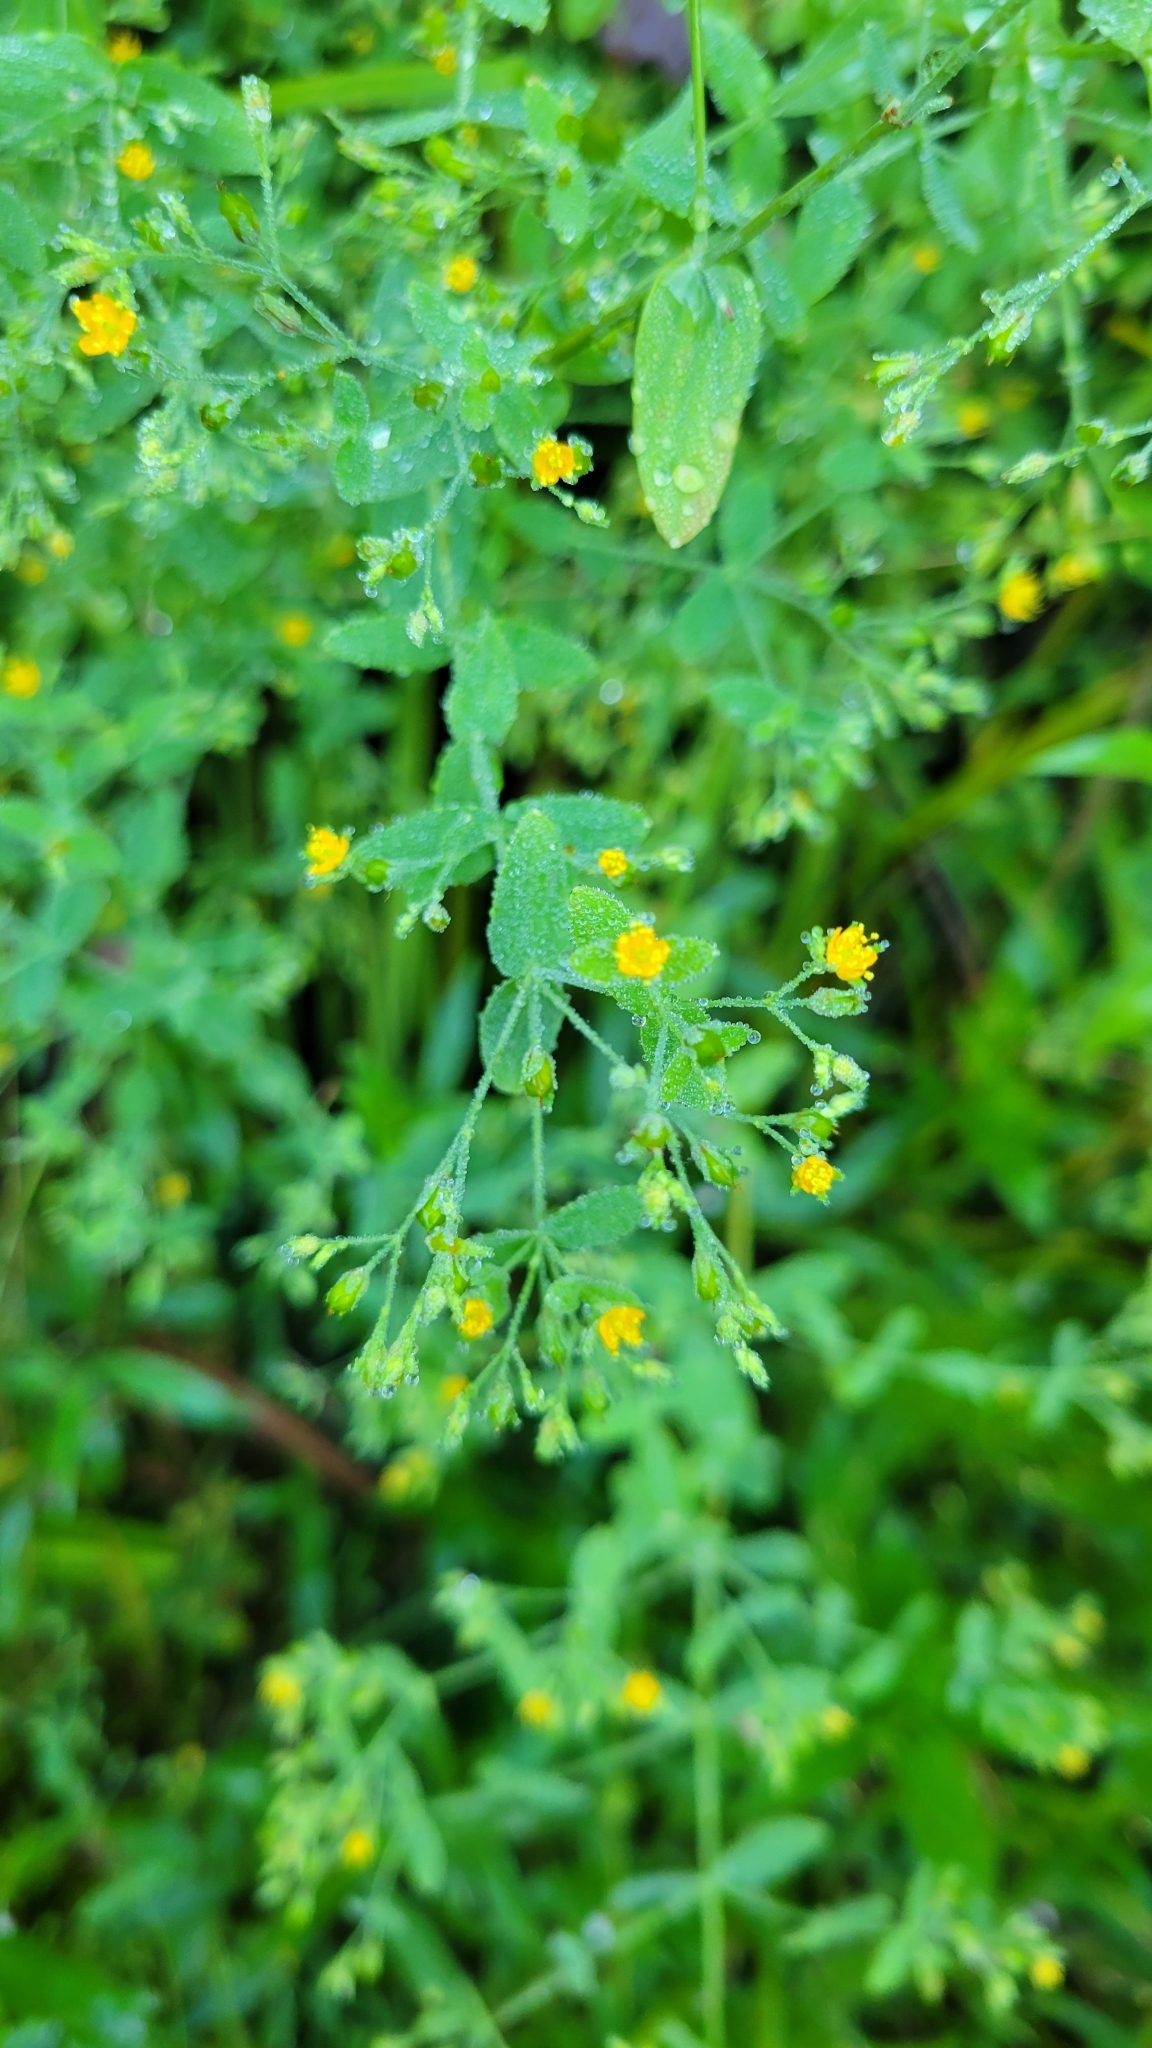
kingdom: Plantae
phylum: Tracheophyta
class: Magnoliopsida
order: Malpighiales
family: Hypericaceae
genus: Hypericum
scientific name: Hypericum mutilum
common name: Dwarf st. john's-wort
